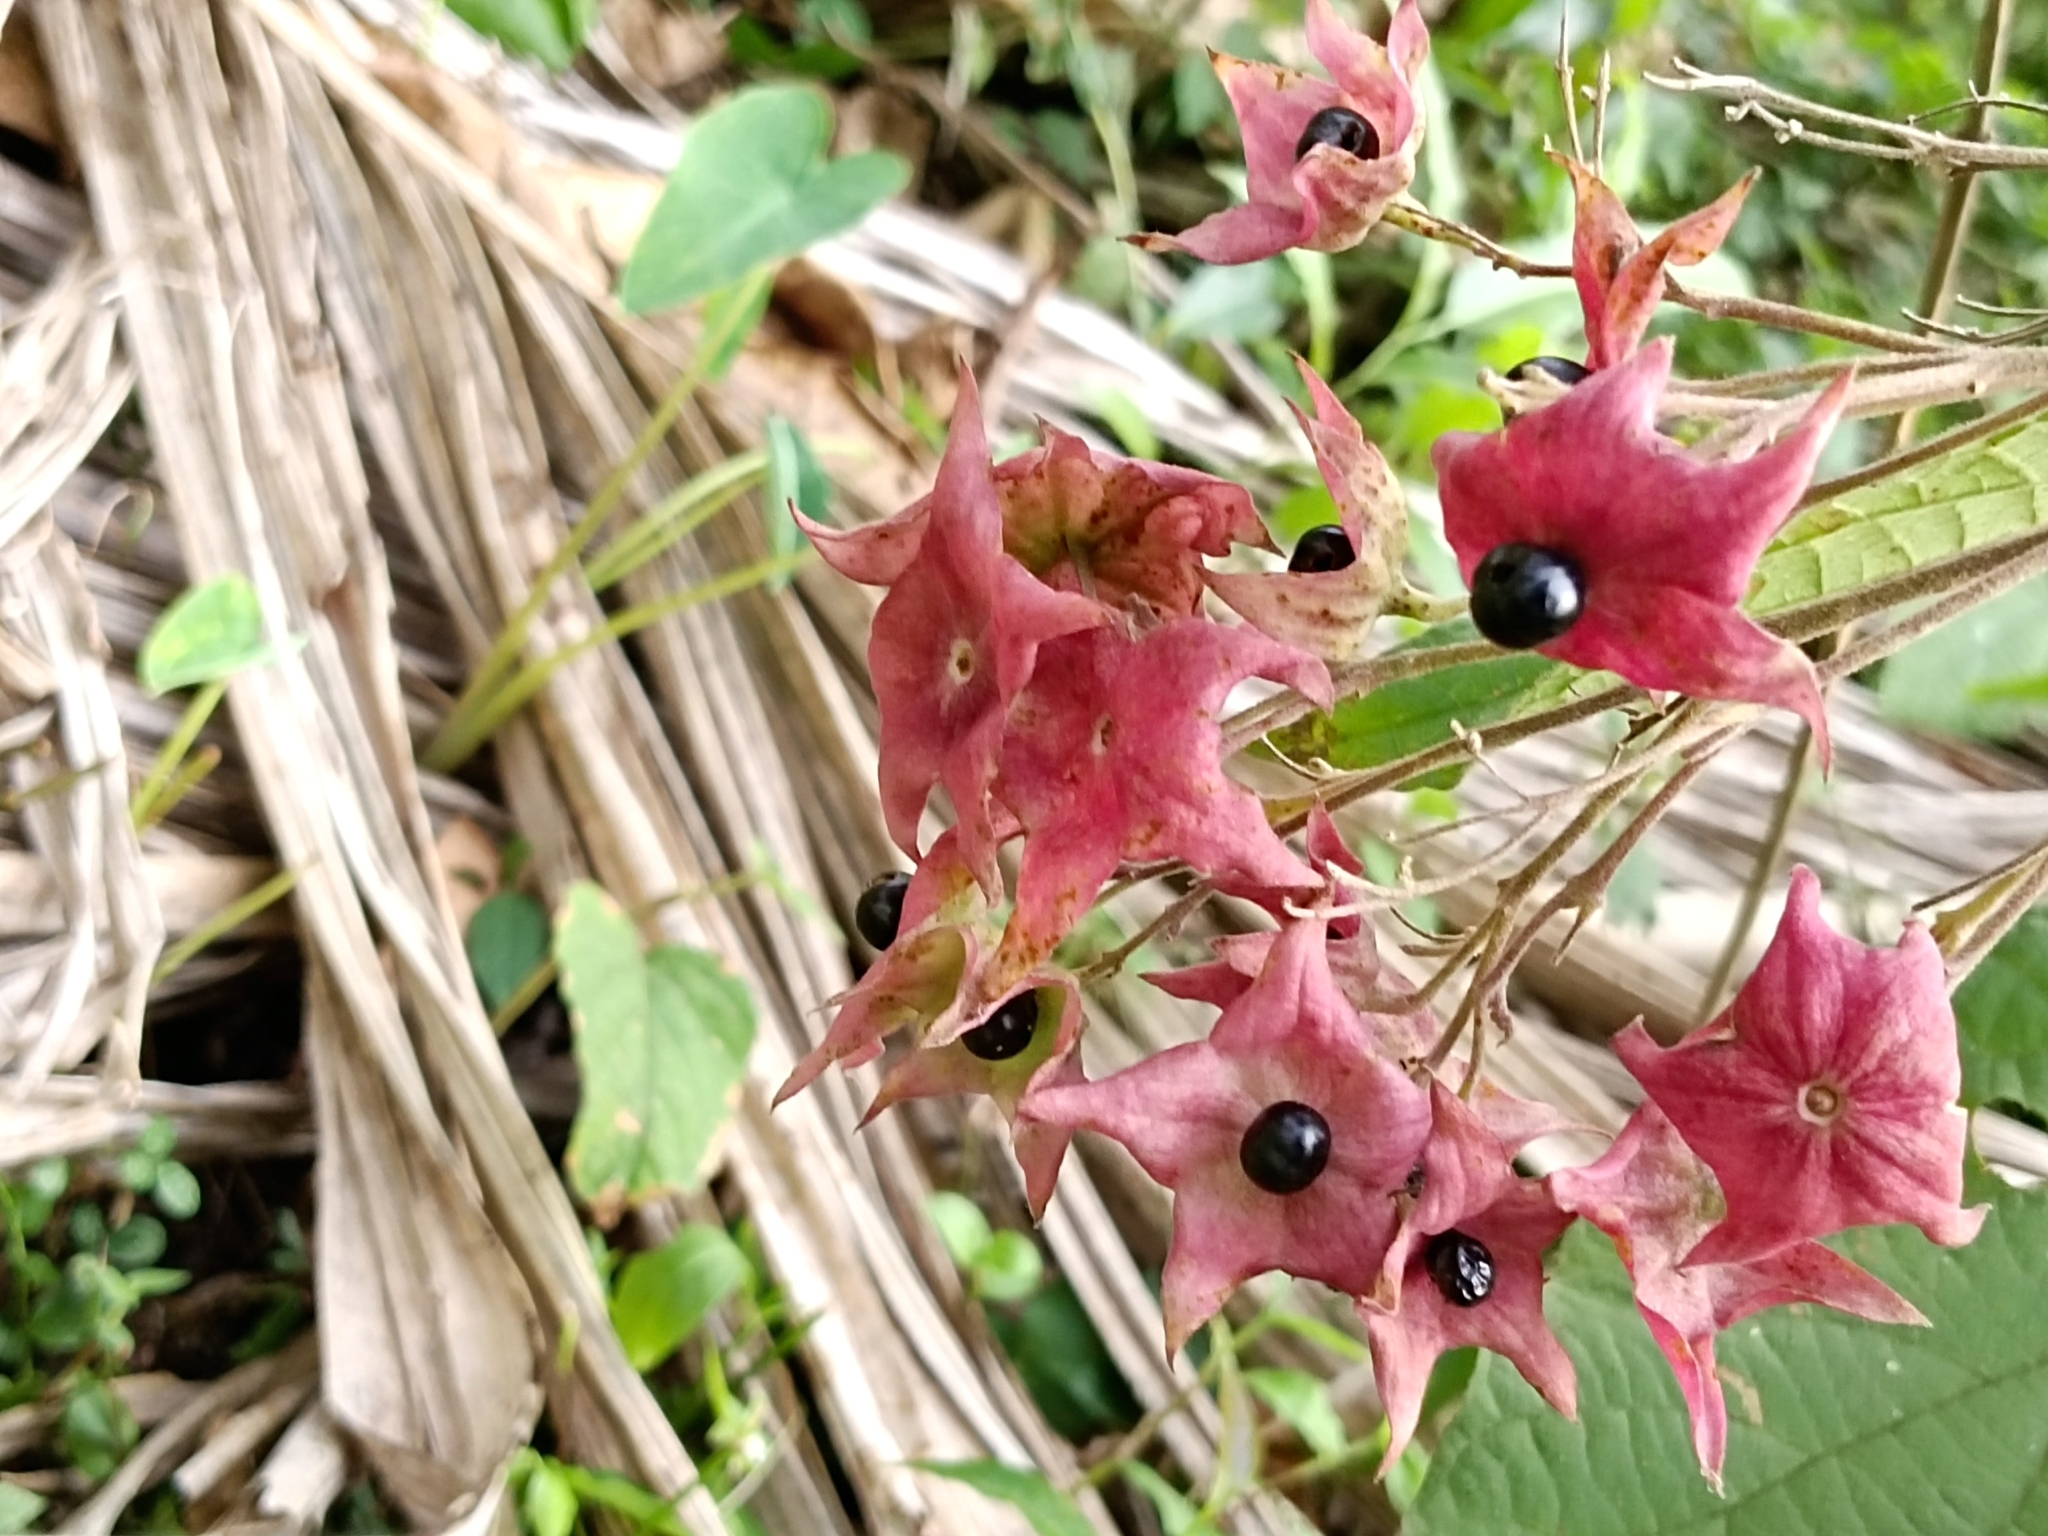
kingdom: Plantae
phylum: Tracheophyta
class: Magnoliopsida
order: Lamiales
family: Lamiaceae
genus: Clerodendrum
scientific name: Clerodendrum infortunatum
